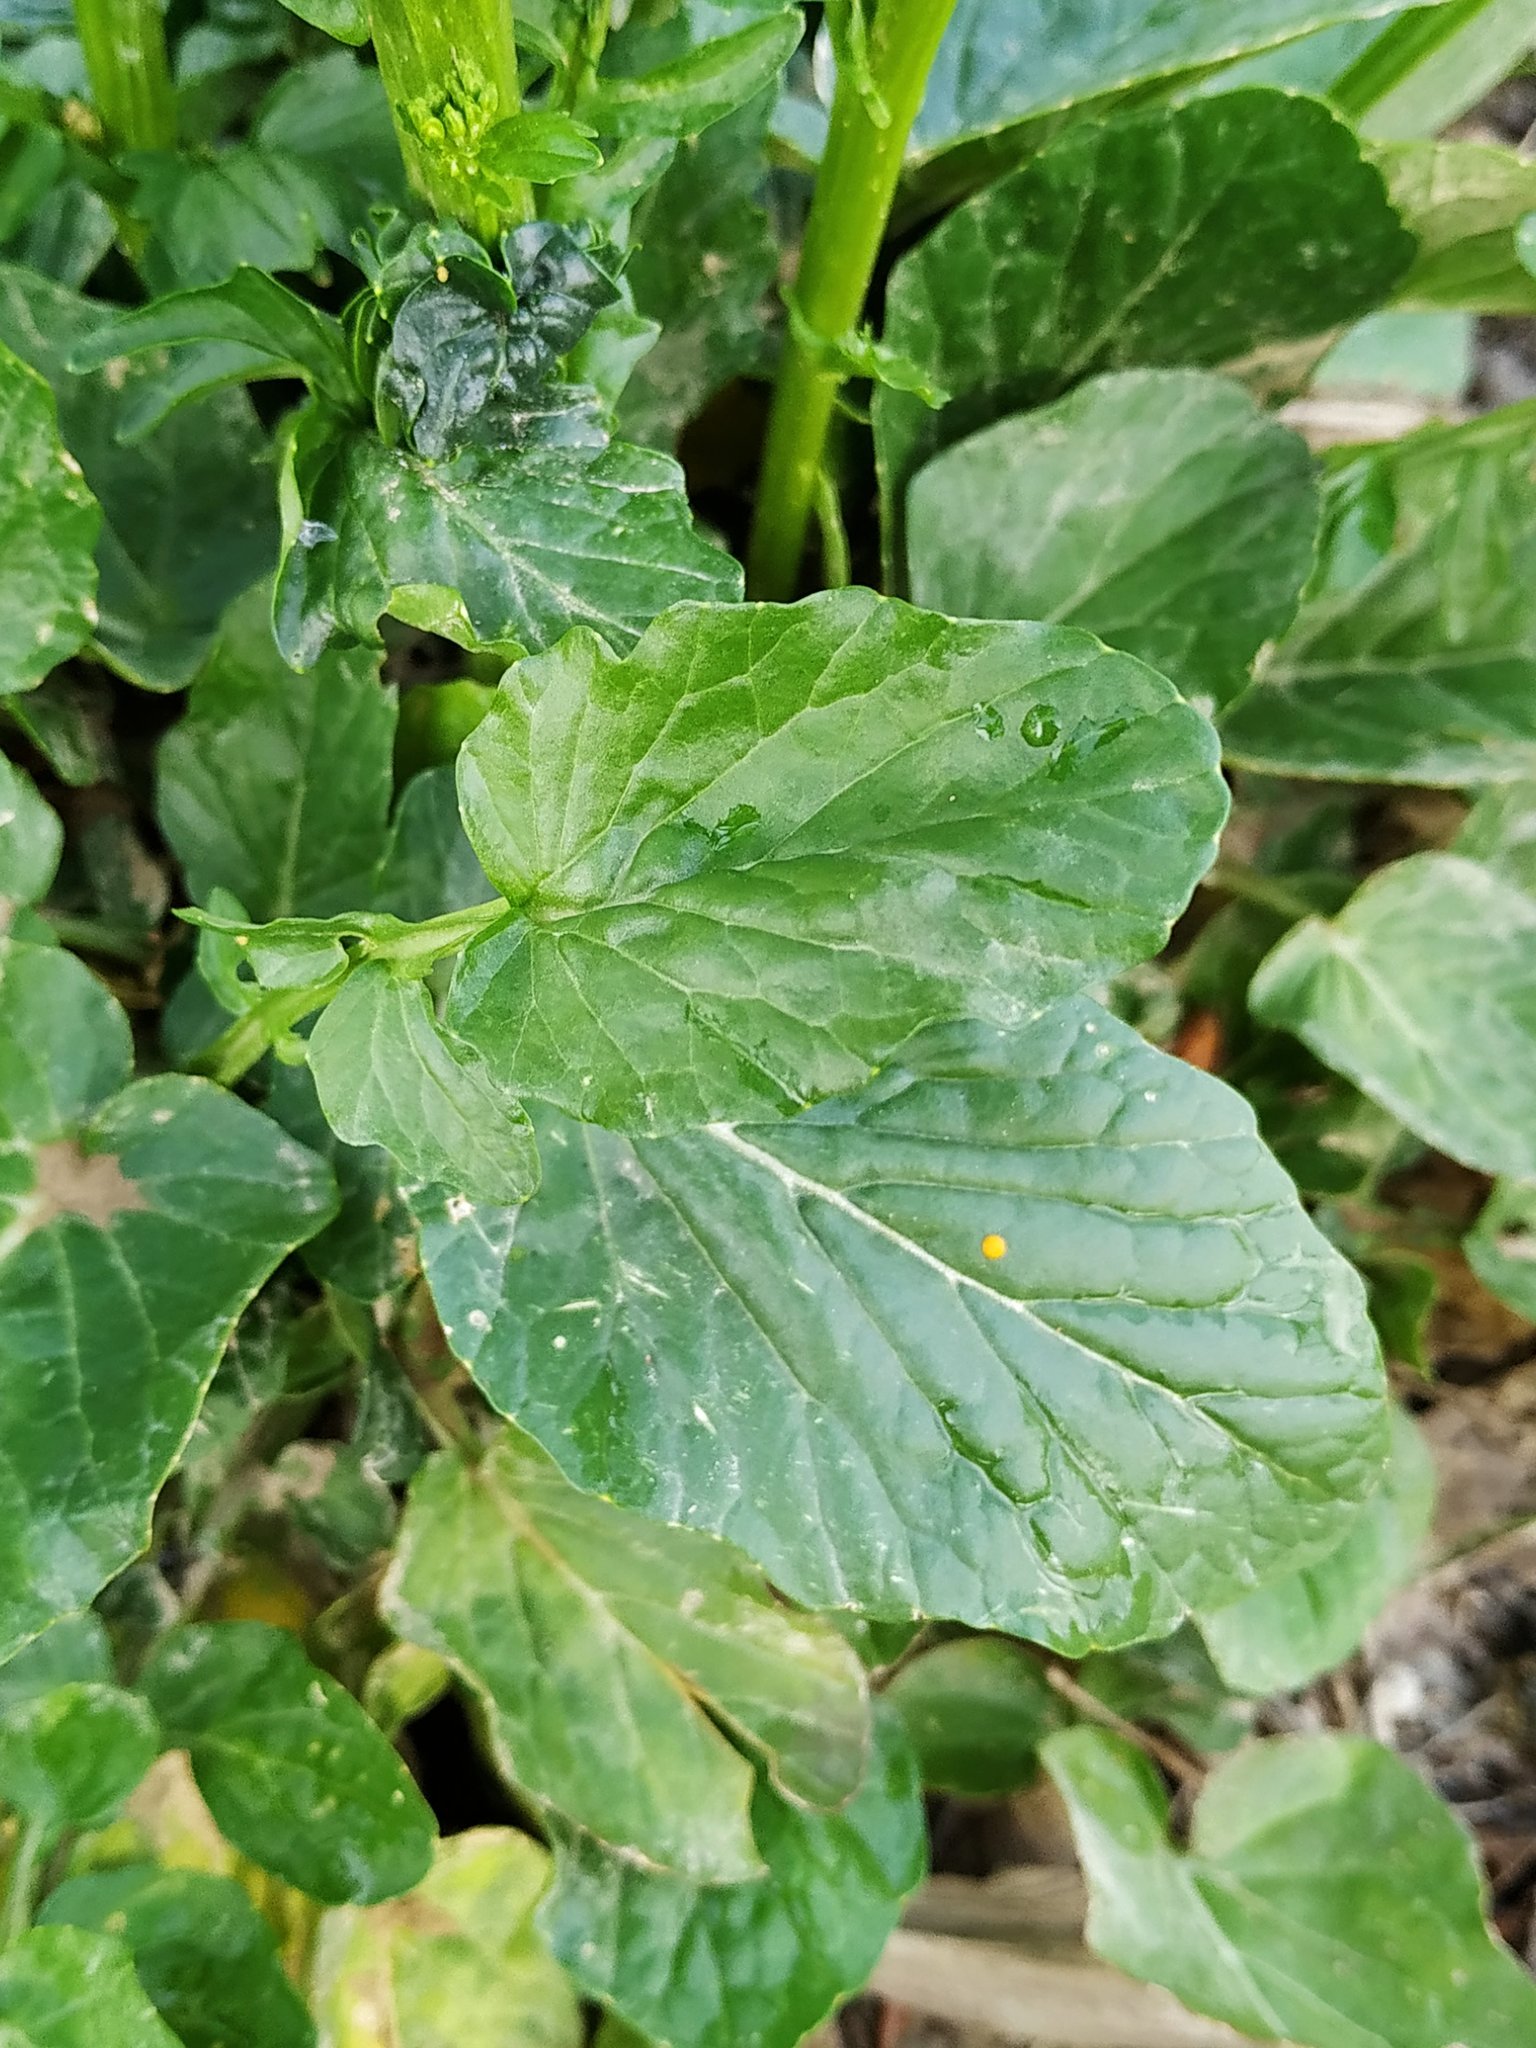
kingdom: Plantae
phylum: Tracheophyta
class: Magnoliopsida
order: Brassicales
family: Brassicaceae
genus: Barbarea
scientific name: Barbarea vulgaris
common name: Cressy-greens
